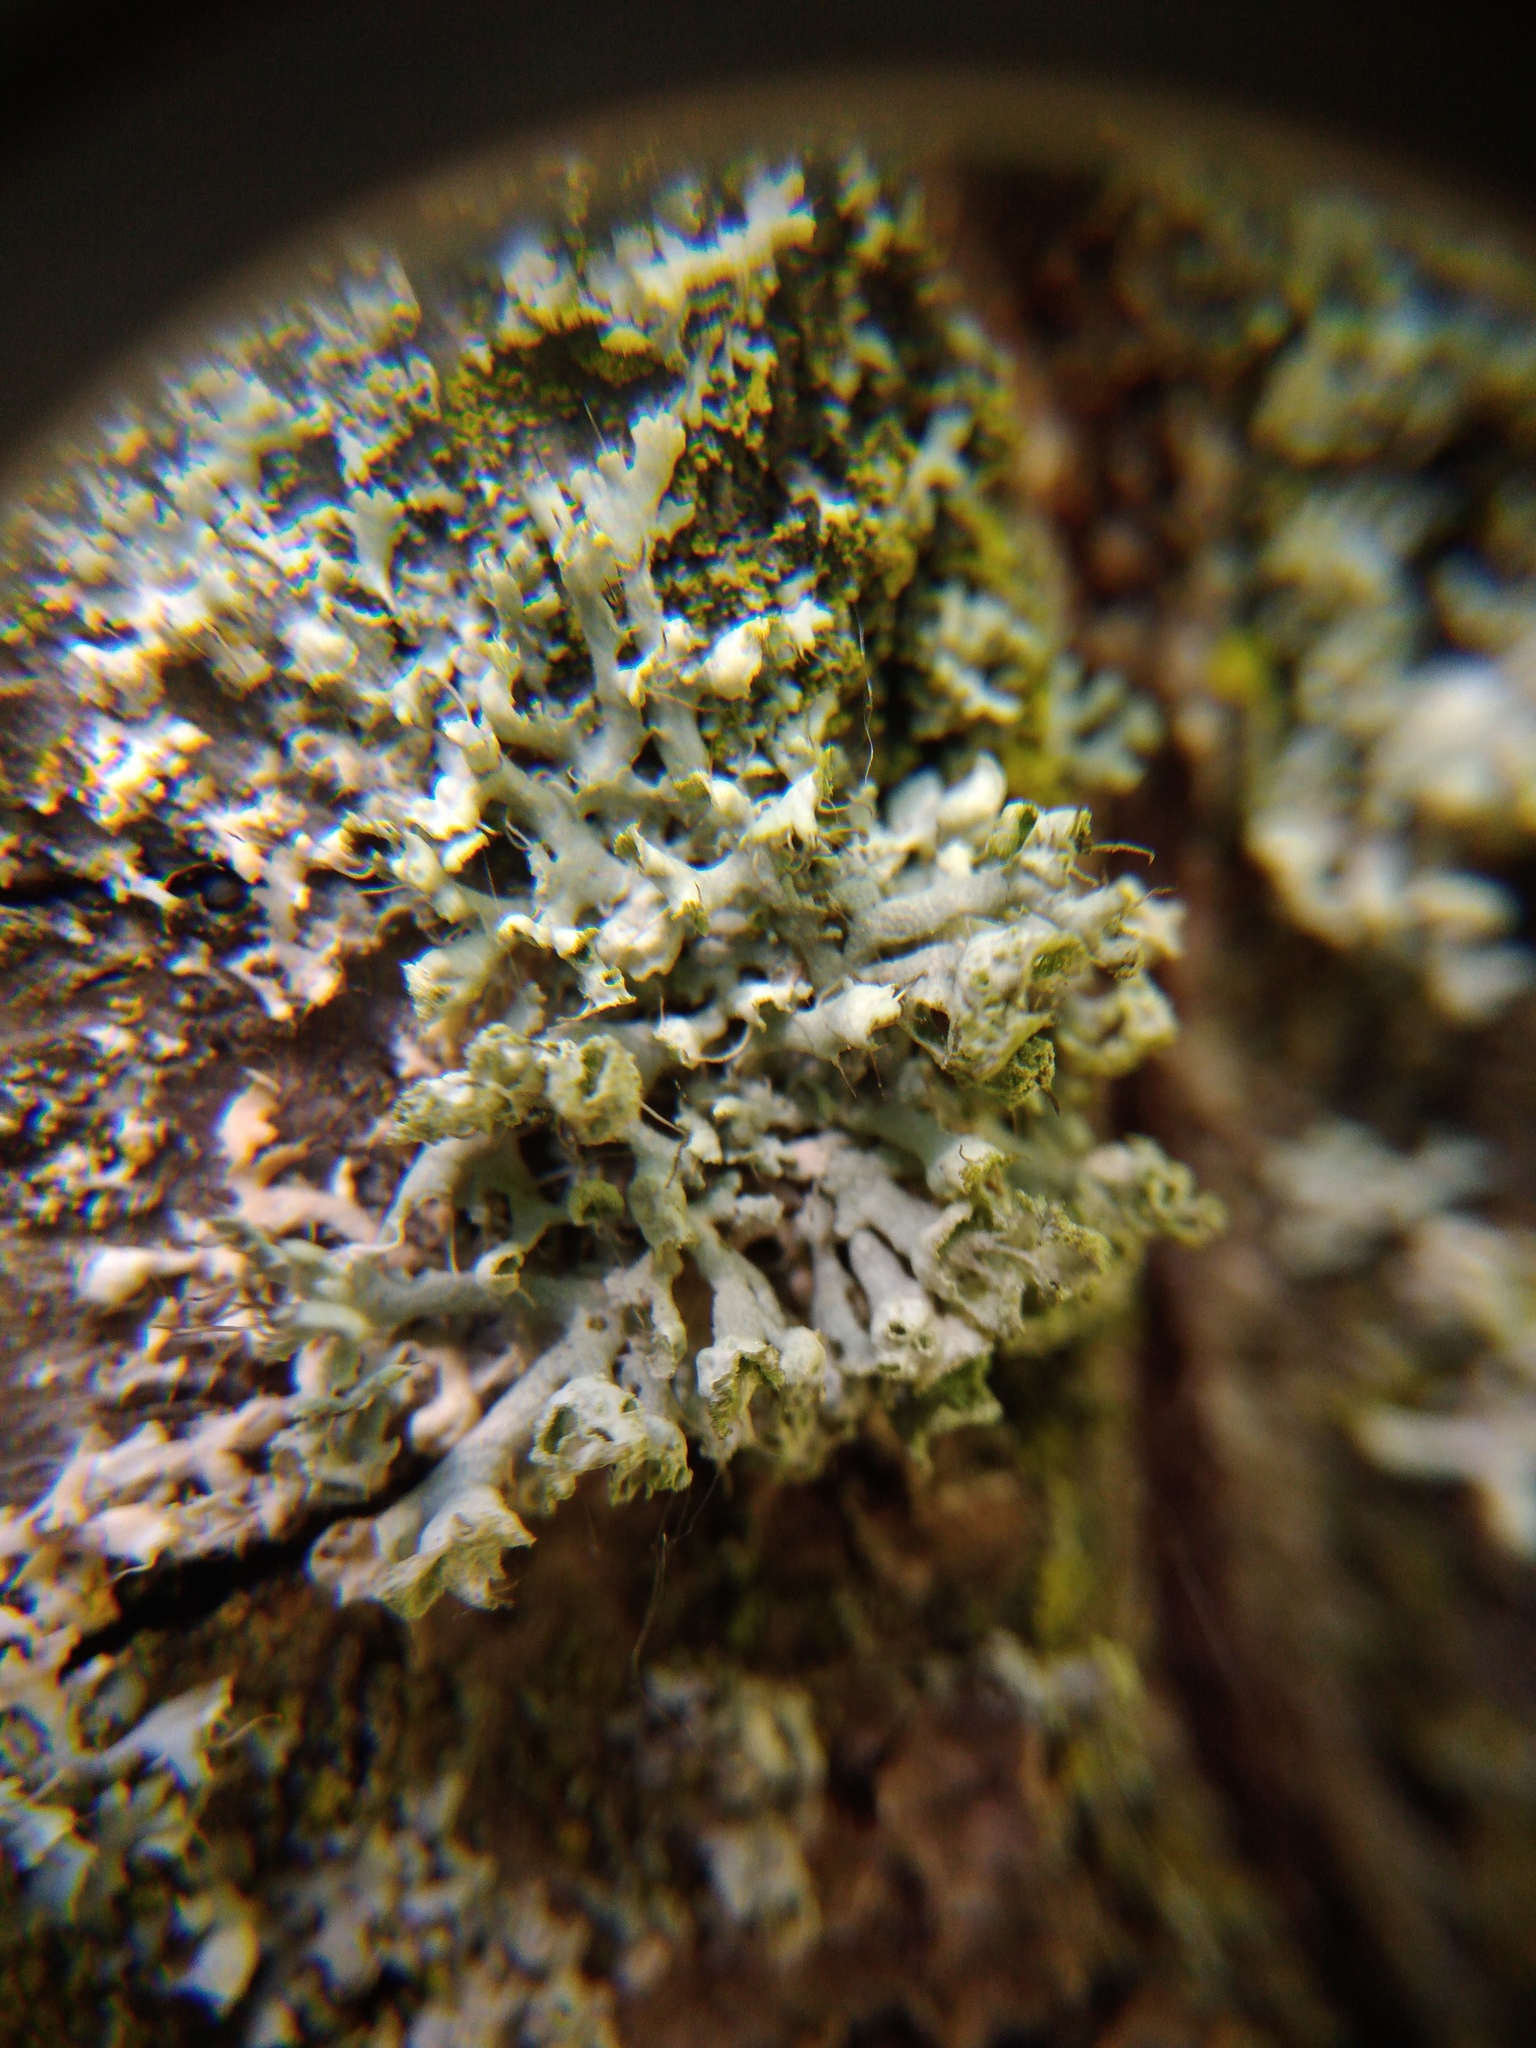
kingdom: Fungi
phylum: Ascomycota
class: Lecanoromycetes
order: Caliciales
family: Physciaceae
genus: Physcia
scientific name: Physcia adscendens
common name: Hooded rosette lichen
